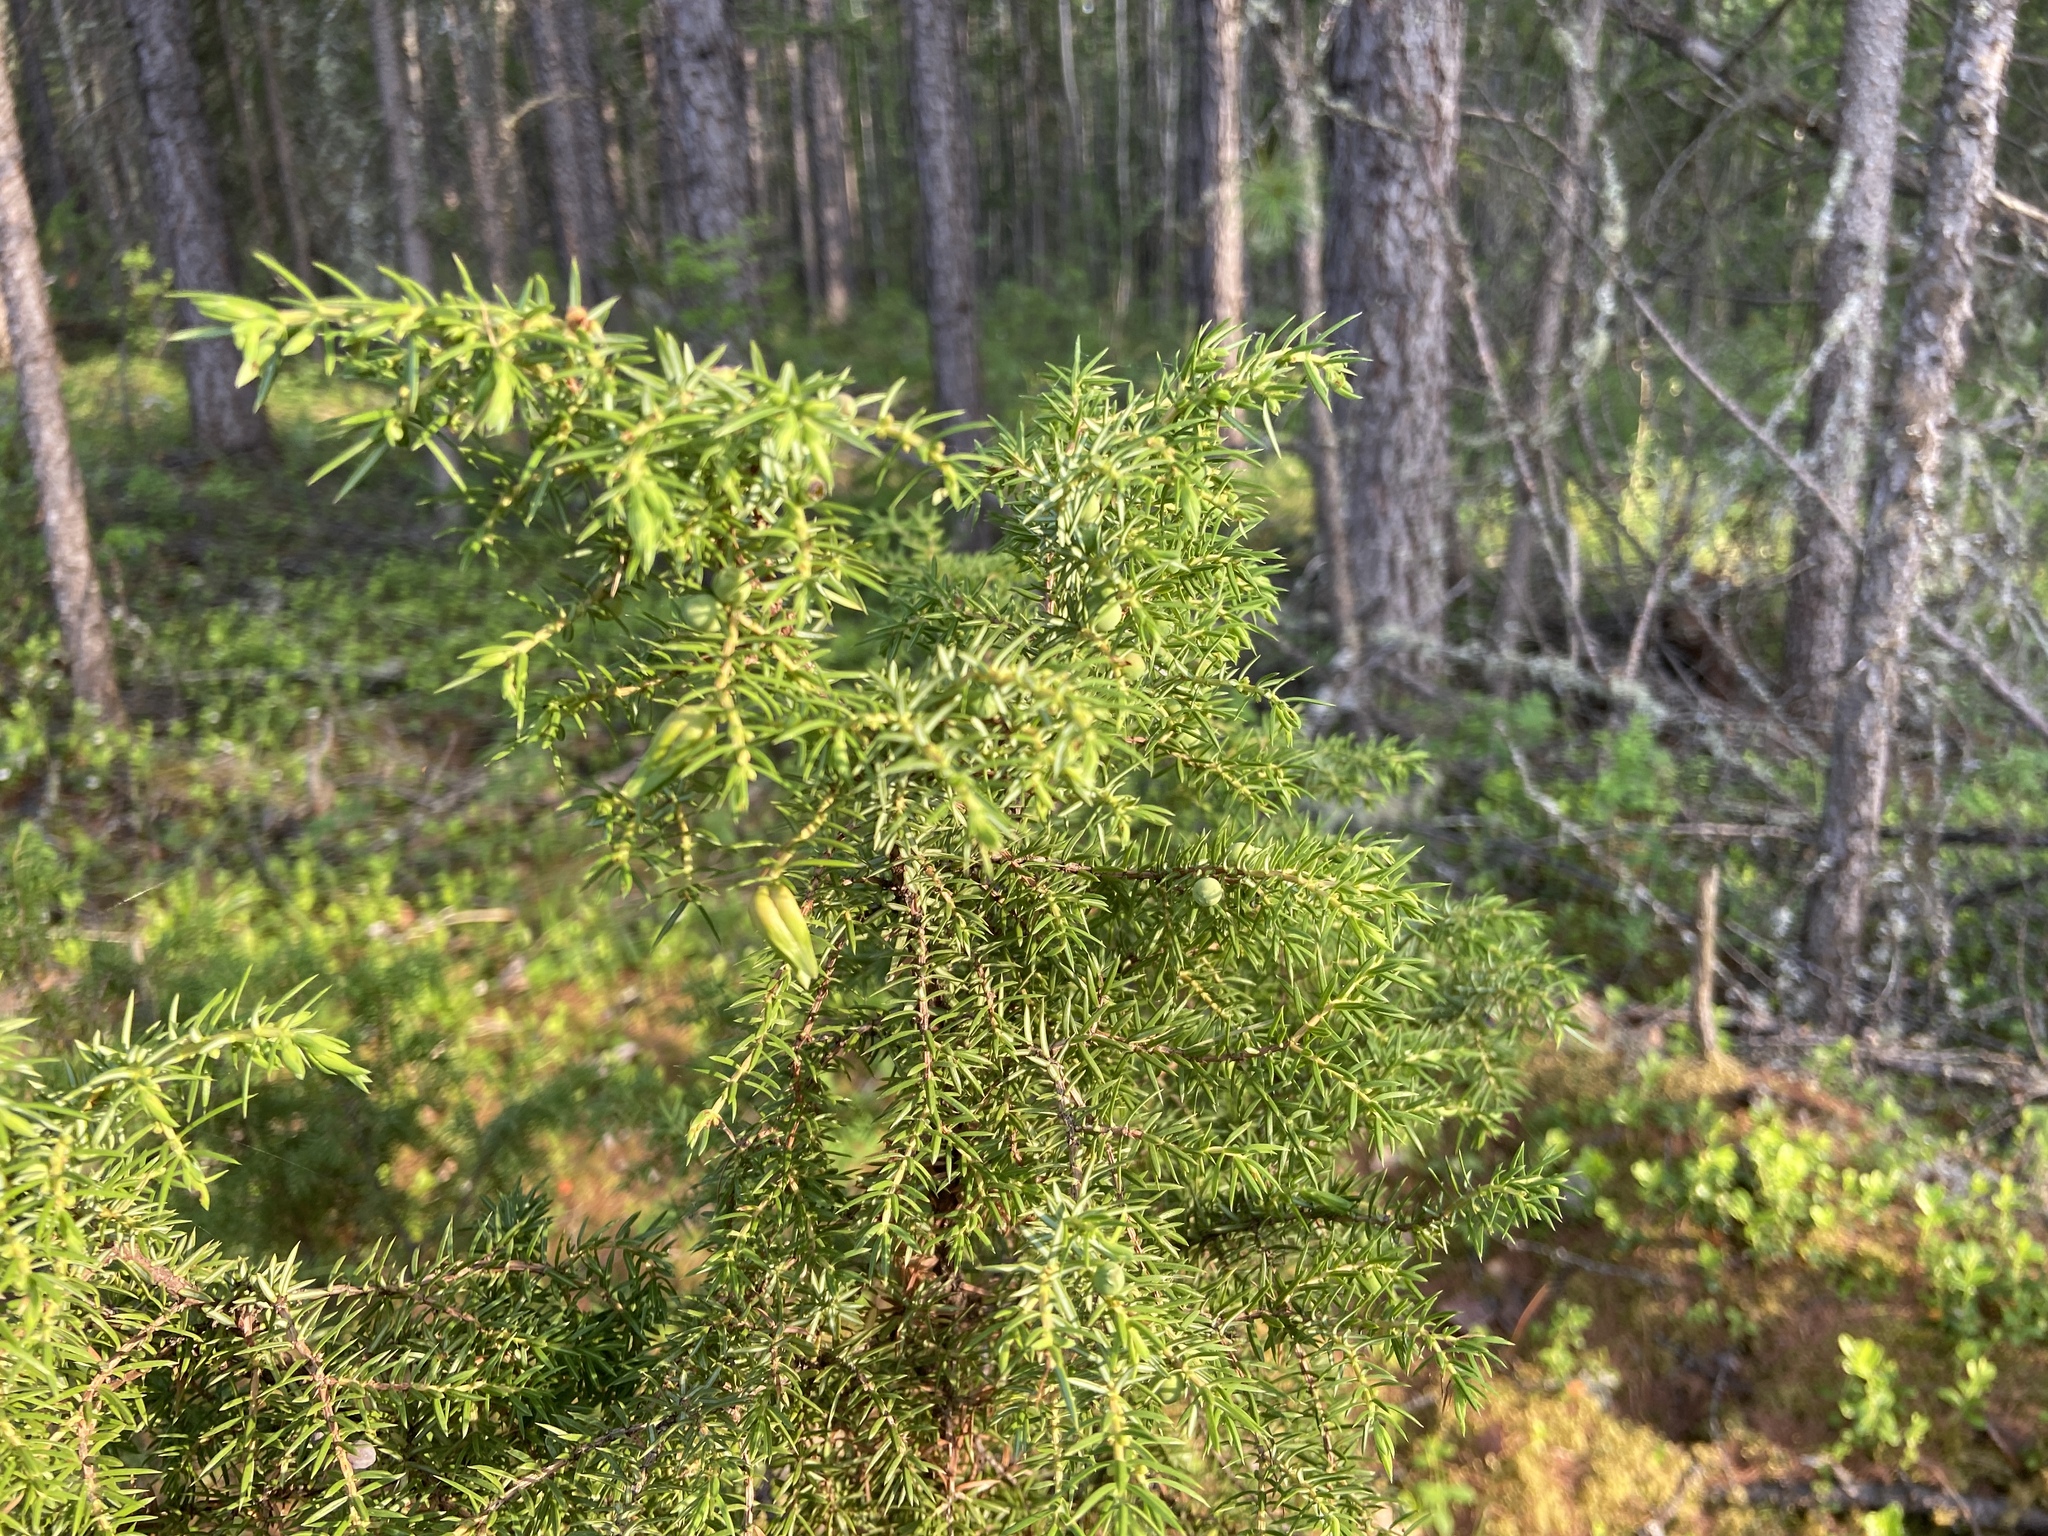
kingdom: Plantae
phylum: Tracheophyta
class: Pinopsida
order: Pinales
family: Cupressaceae
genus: Juniperus
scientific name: Juniperus communis
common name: Common juniper
